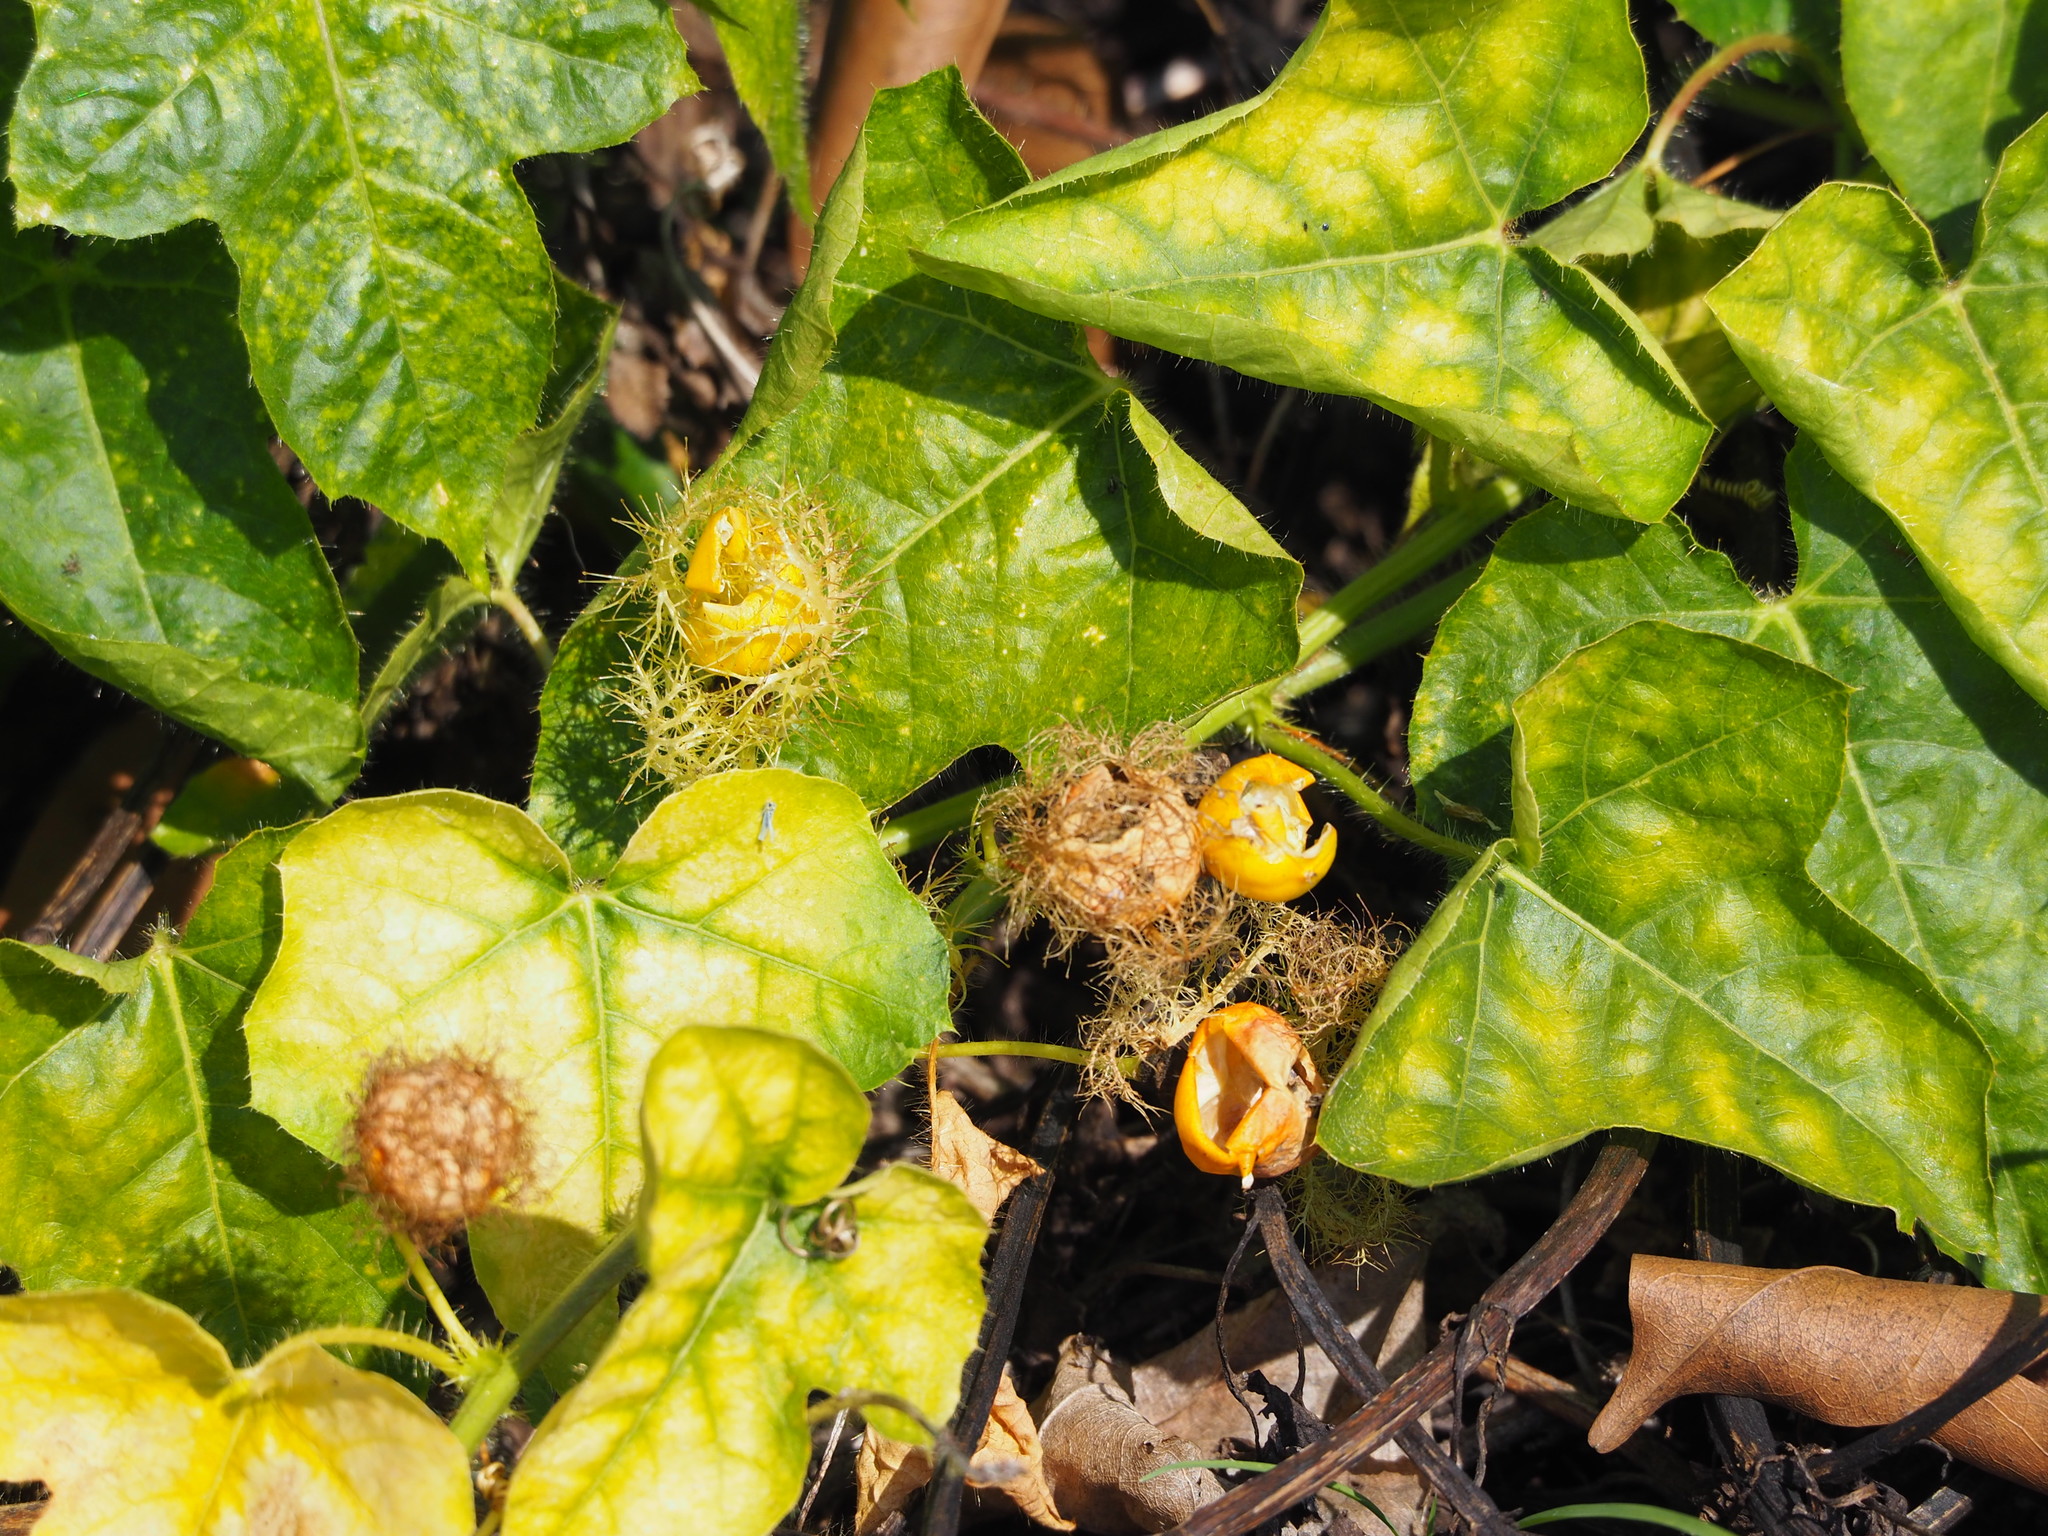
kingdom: Plantae
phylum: Tracheophyta
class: Magnoliopsida
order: Malpighiales
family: Passifloraceae
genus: Passiflora
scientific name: Passiflora vesicaria
